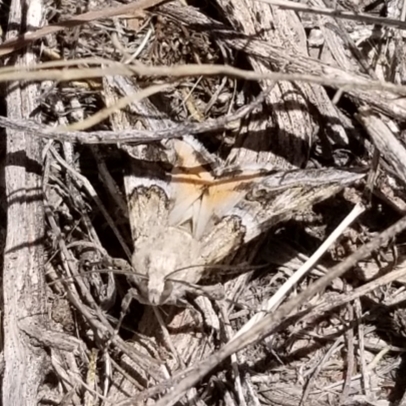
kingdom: Animalia
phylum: Arthropoda
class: Insecta
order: Lepidoptera
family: Erebidae
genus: Drasteria
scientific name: Drasteria howlandii
